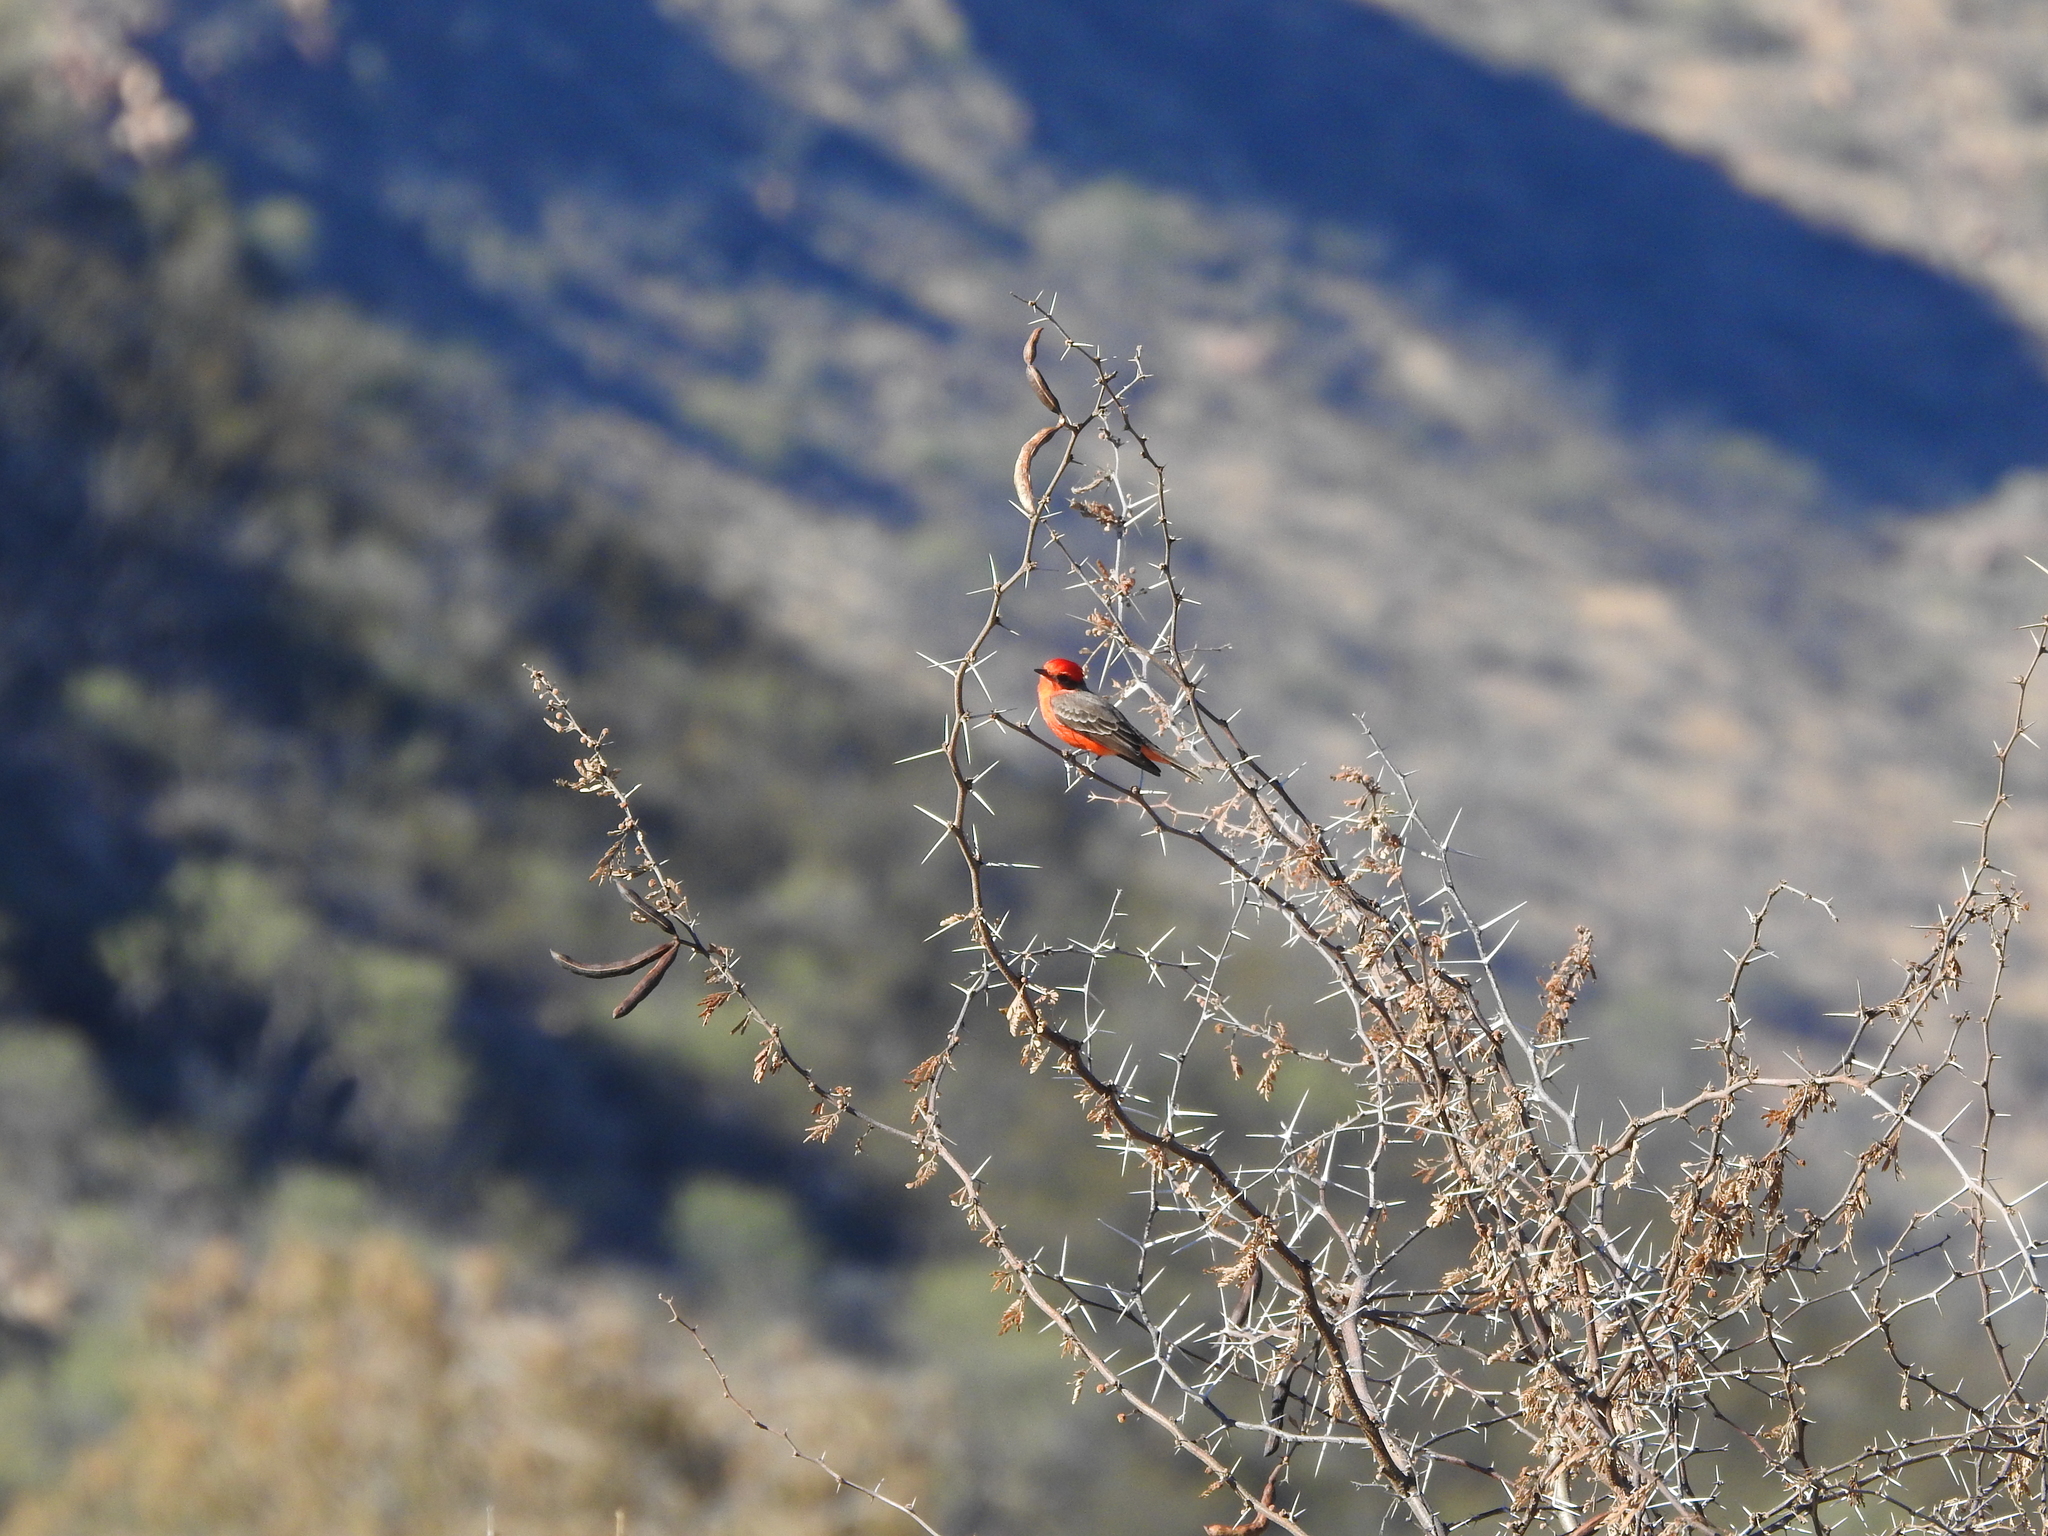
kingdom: Animalia
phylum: Chordata
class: Aves
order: Passeriformes
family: Tyrannidae
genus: Pyrocephalus
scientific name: Pyrocephalus rubinus
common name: Vermilion flycatcher
